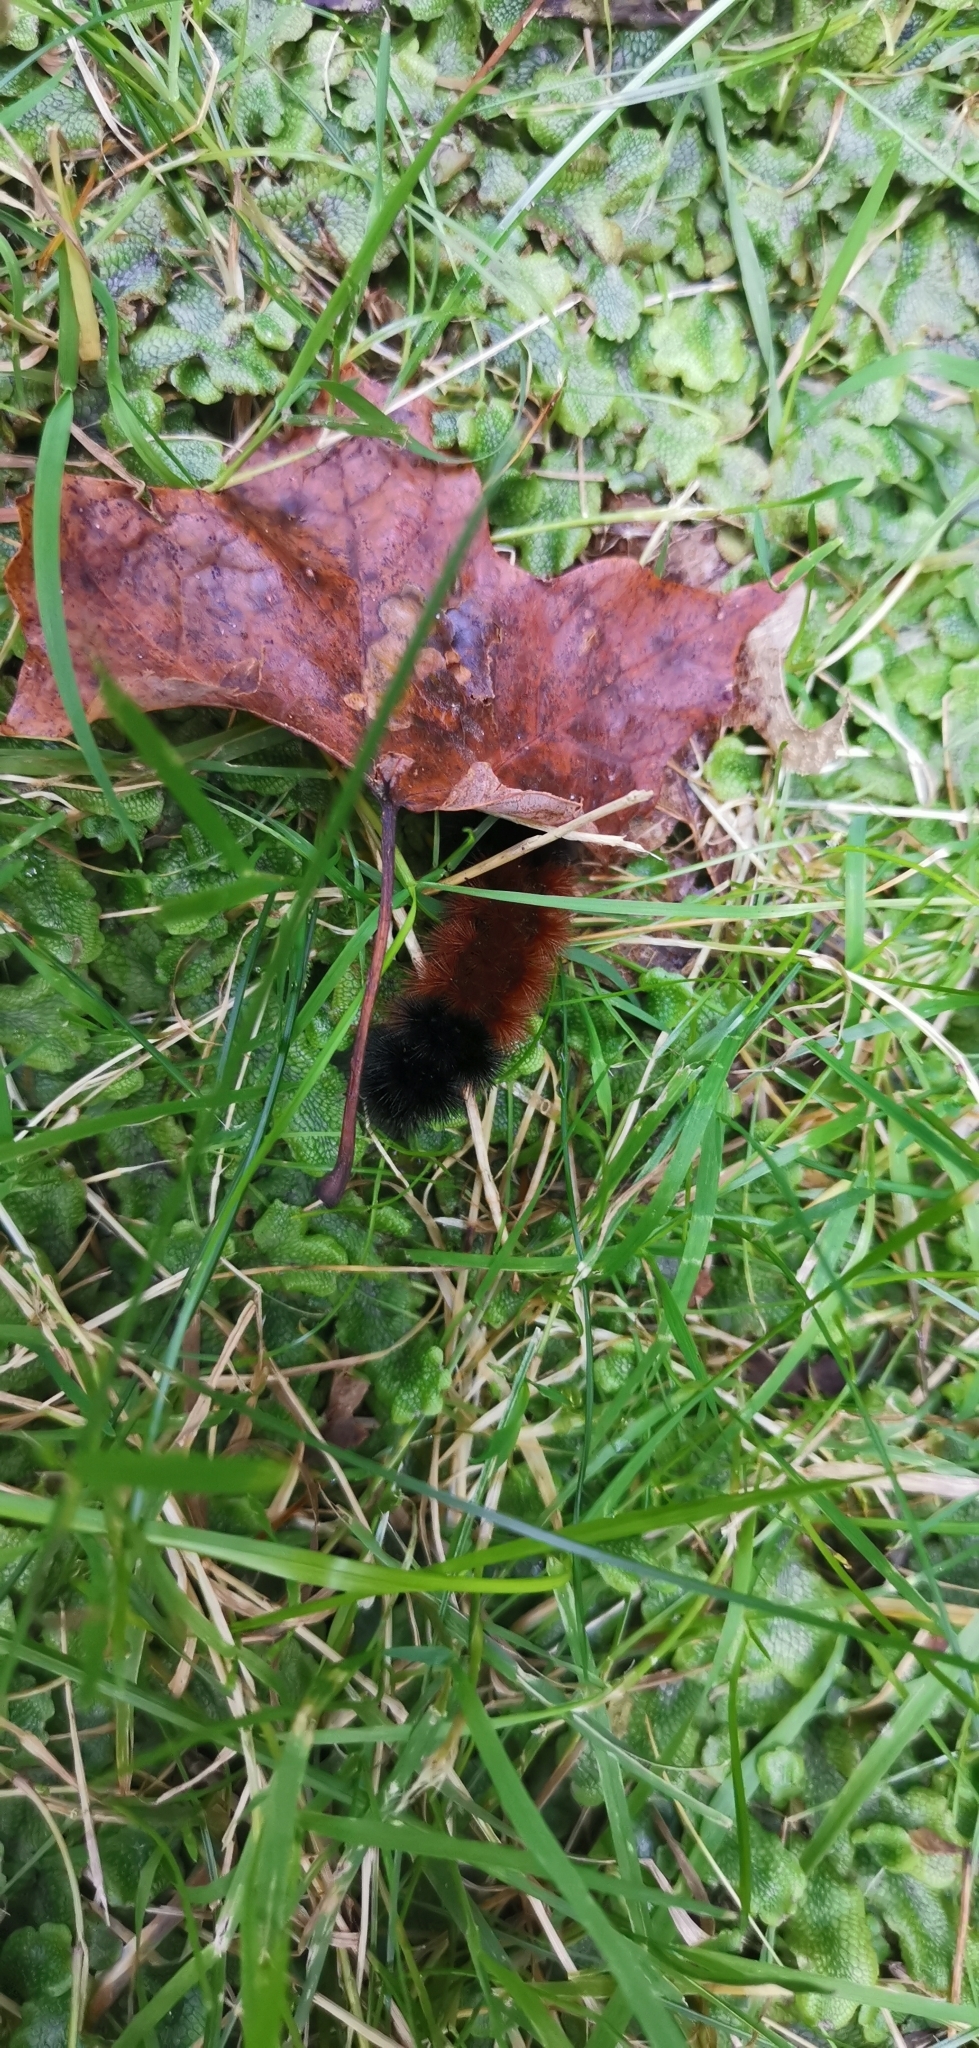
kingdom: Animalia
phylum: Arthropoda
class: Insecta
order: Lepidoptera
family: Erebidae
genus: Pyrrharctia
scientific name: Pyrrharctia isabella
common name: Isabella tiger moth
